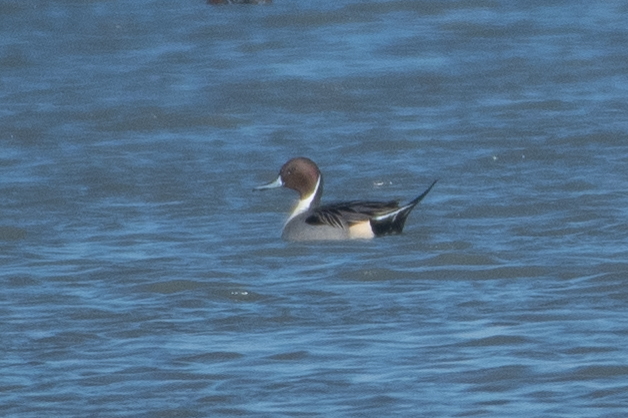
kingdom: Animalia
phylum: Chordata
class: Aves
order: Anseriformes
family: Anatidae
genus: Anas
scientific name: Anas acuta
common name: Northern pintail
